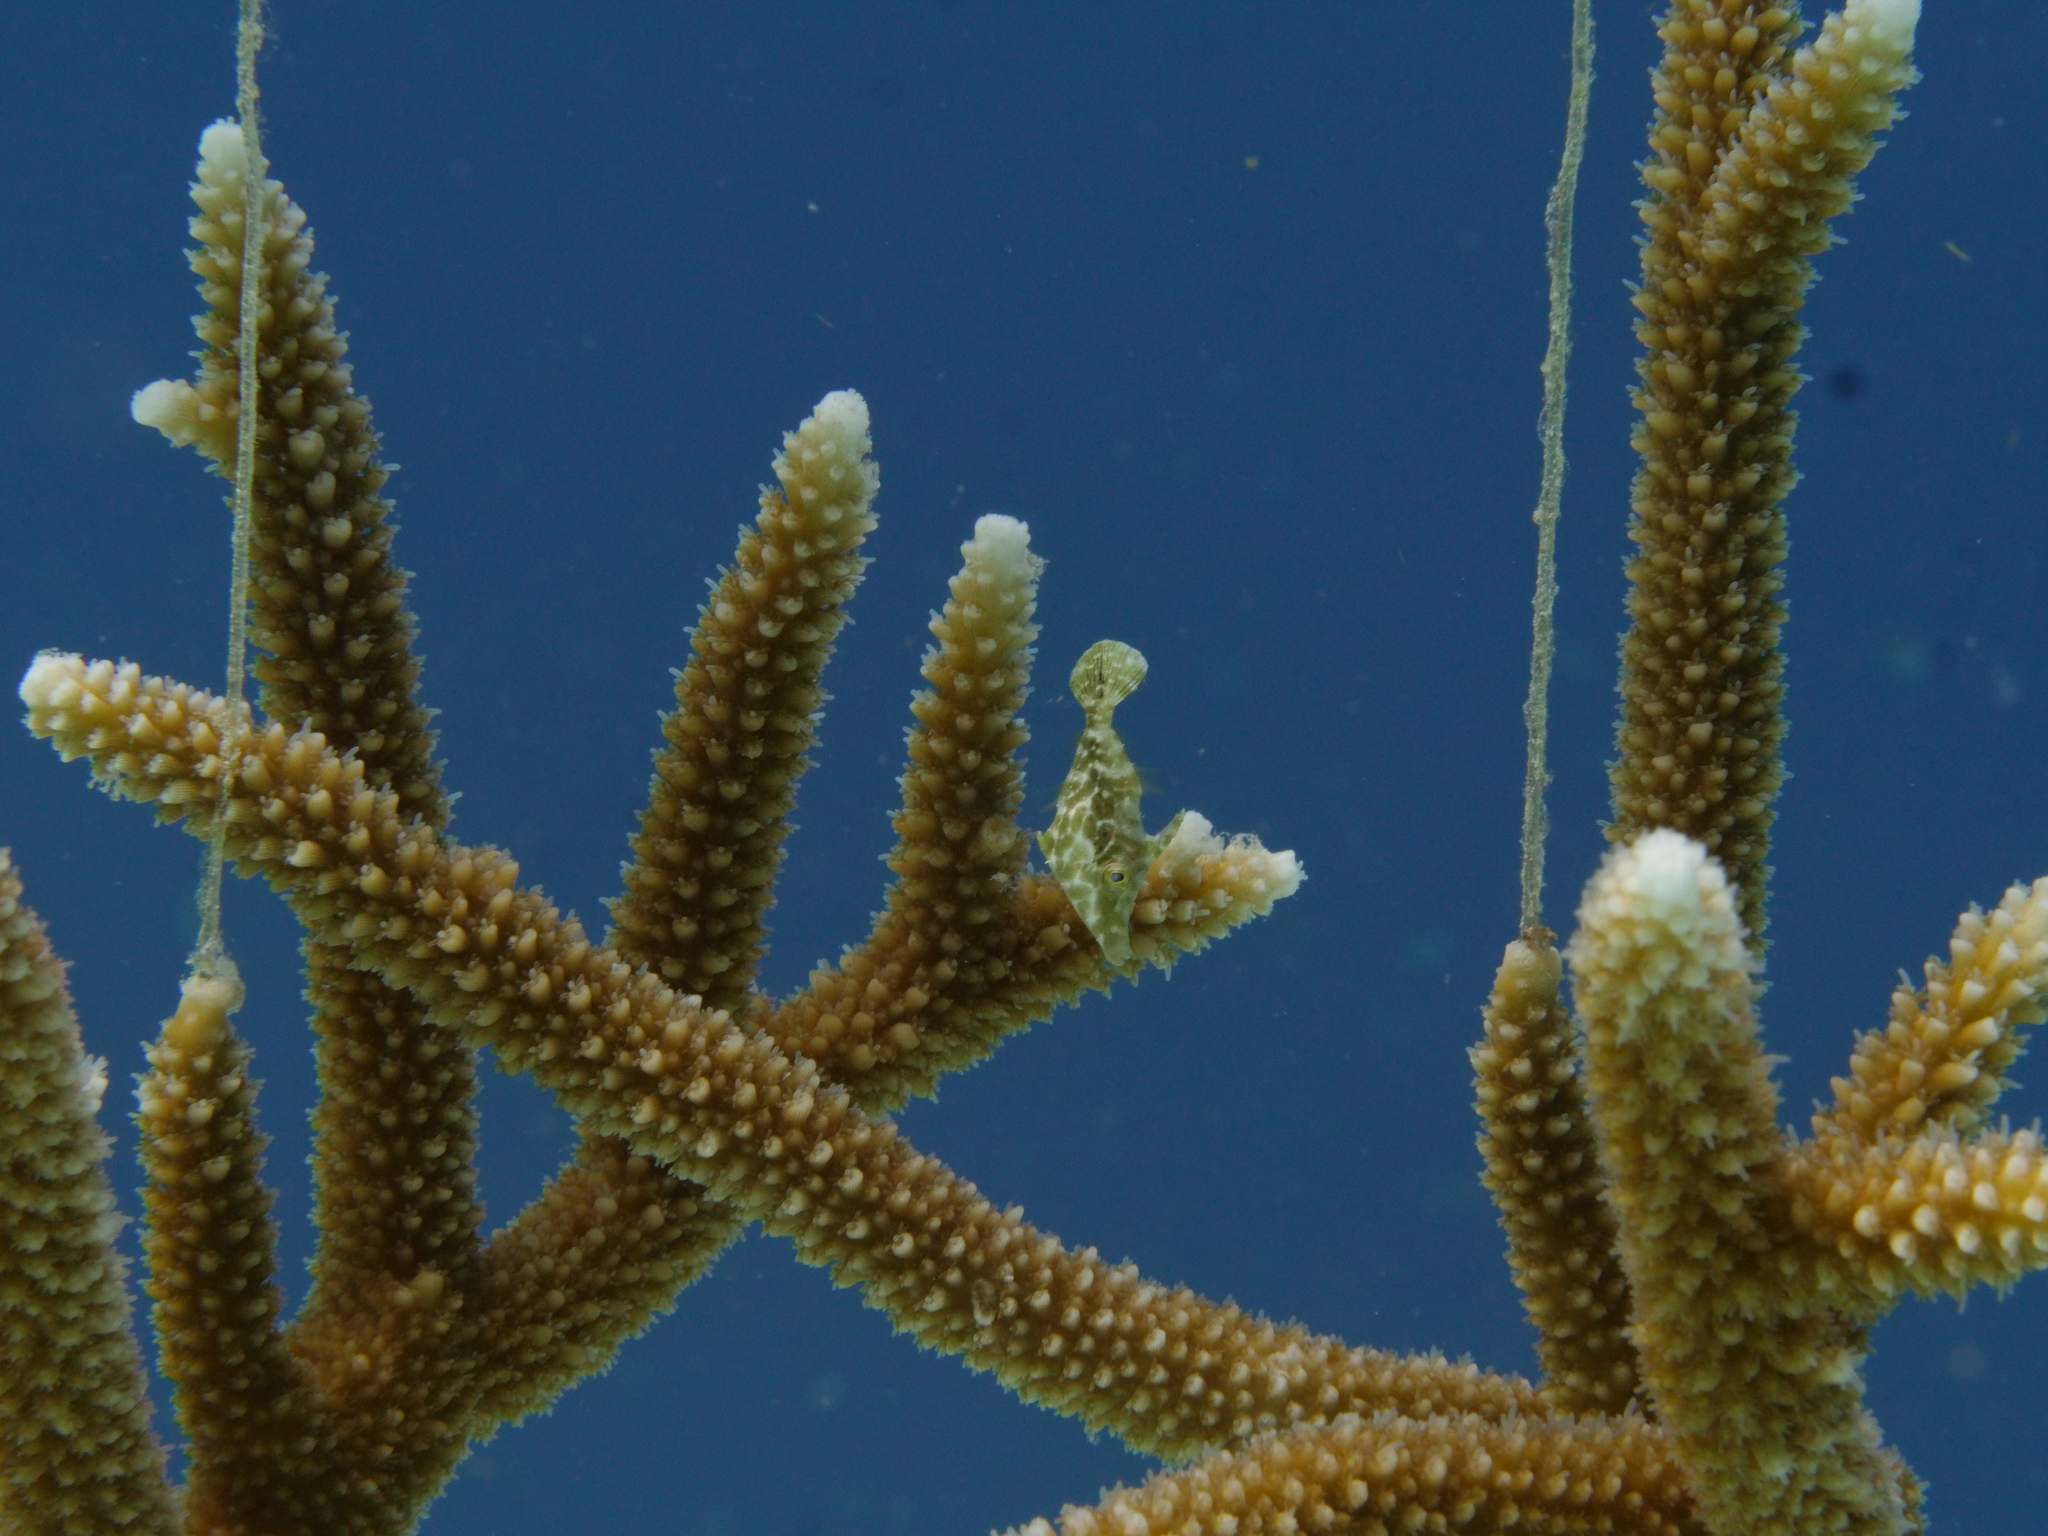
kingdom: Animalia
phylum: Chordata
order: Tetraodontiformes
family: Monacanthidae
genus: Monacanthus
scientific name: Monacanthus tuckeri
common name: Slender filefish
